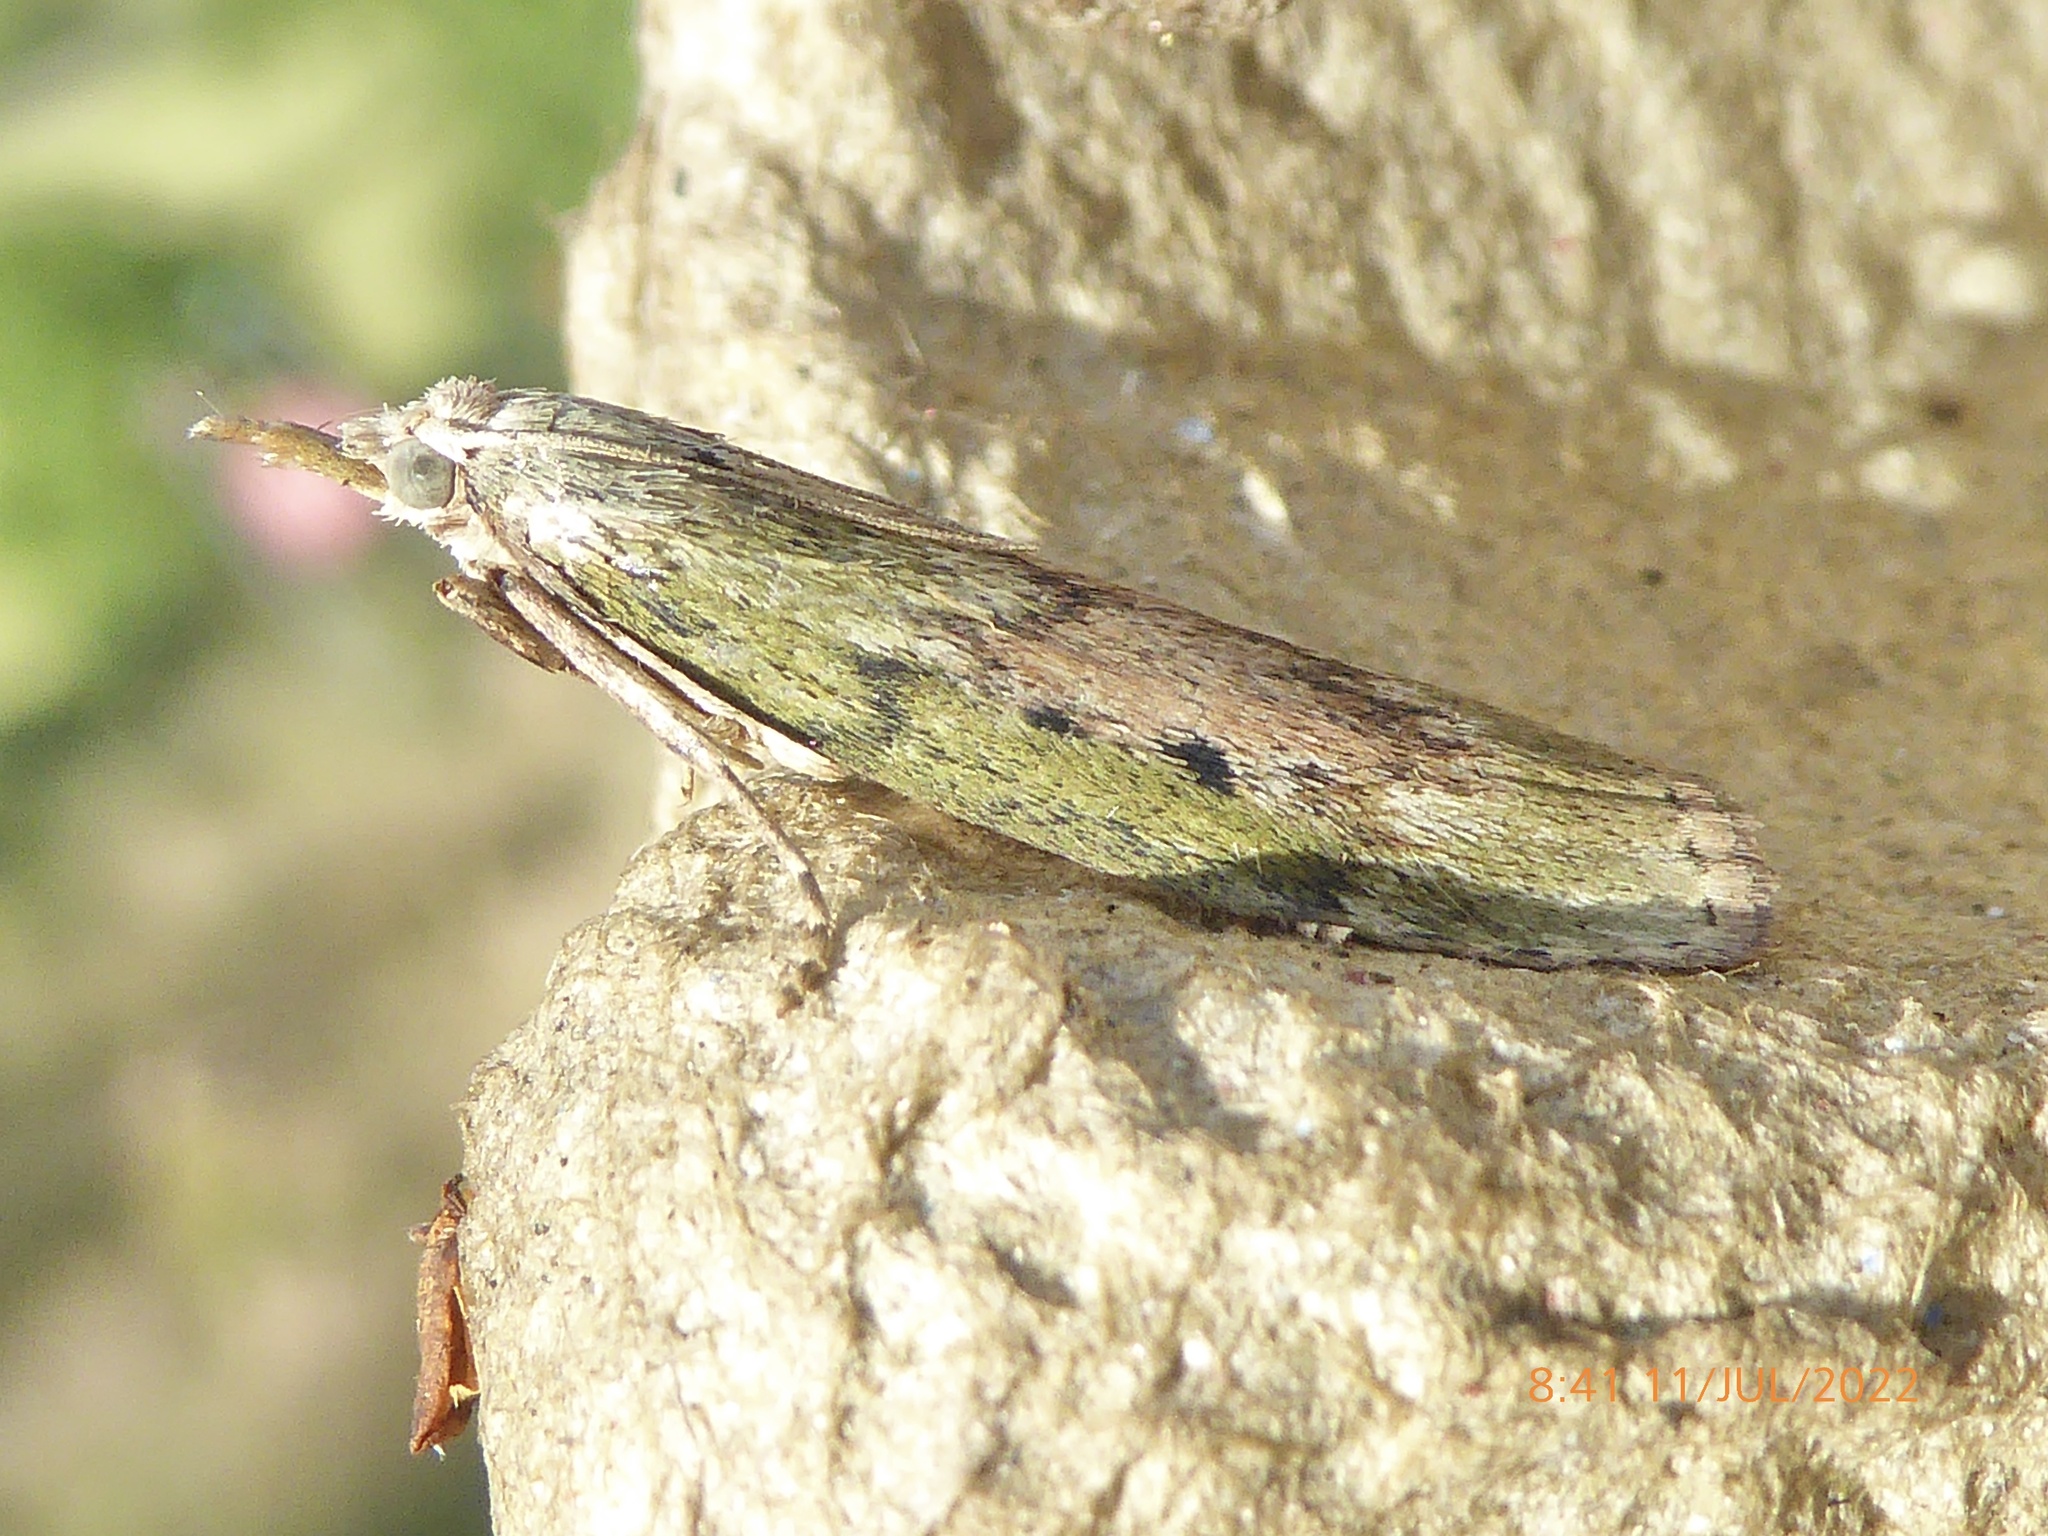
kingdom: Animalia
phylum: Arthropoda
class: Insecta
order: Lepidoptera
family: Pyralidae
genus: Aphomia
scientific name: Aphomia sociella
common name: Bee moth
